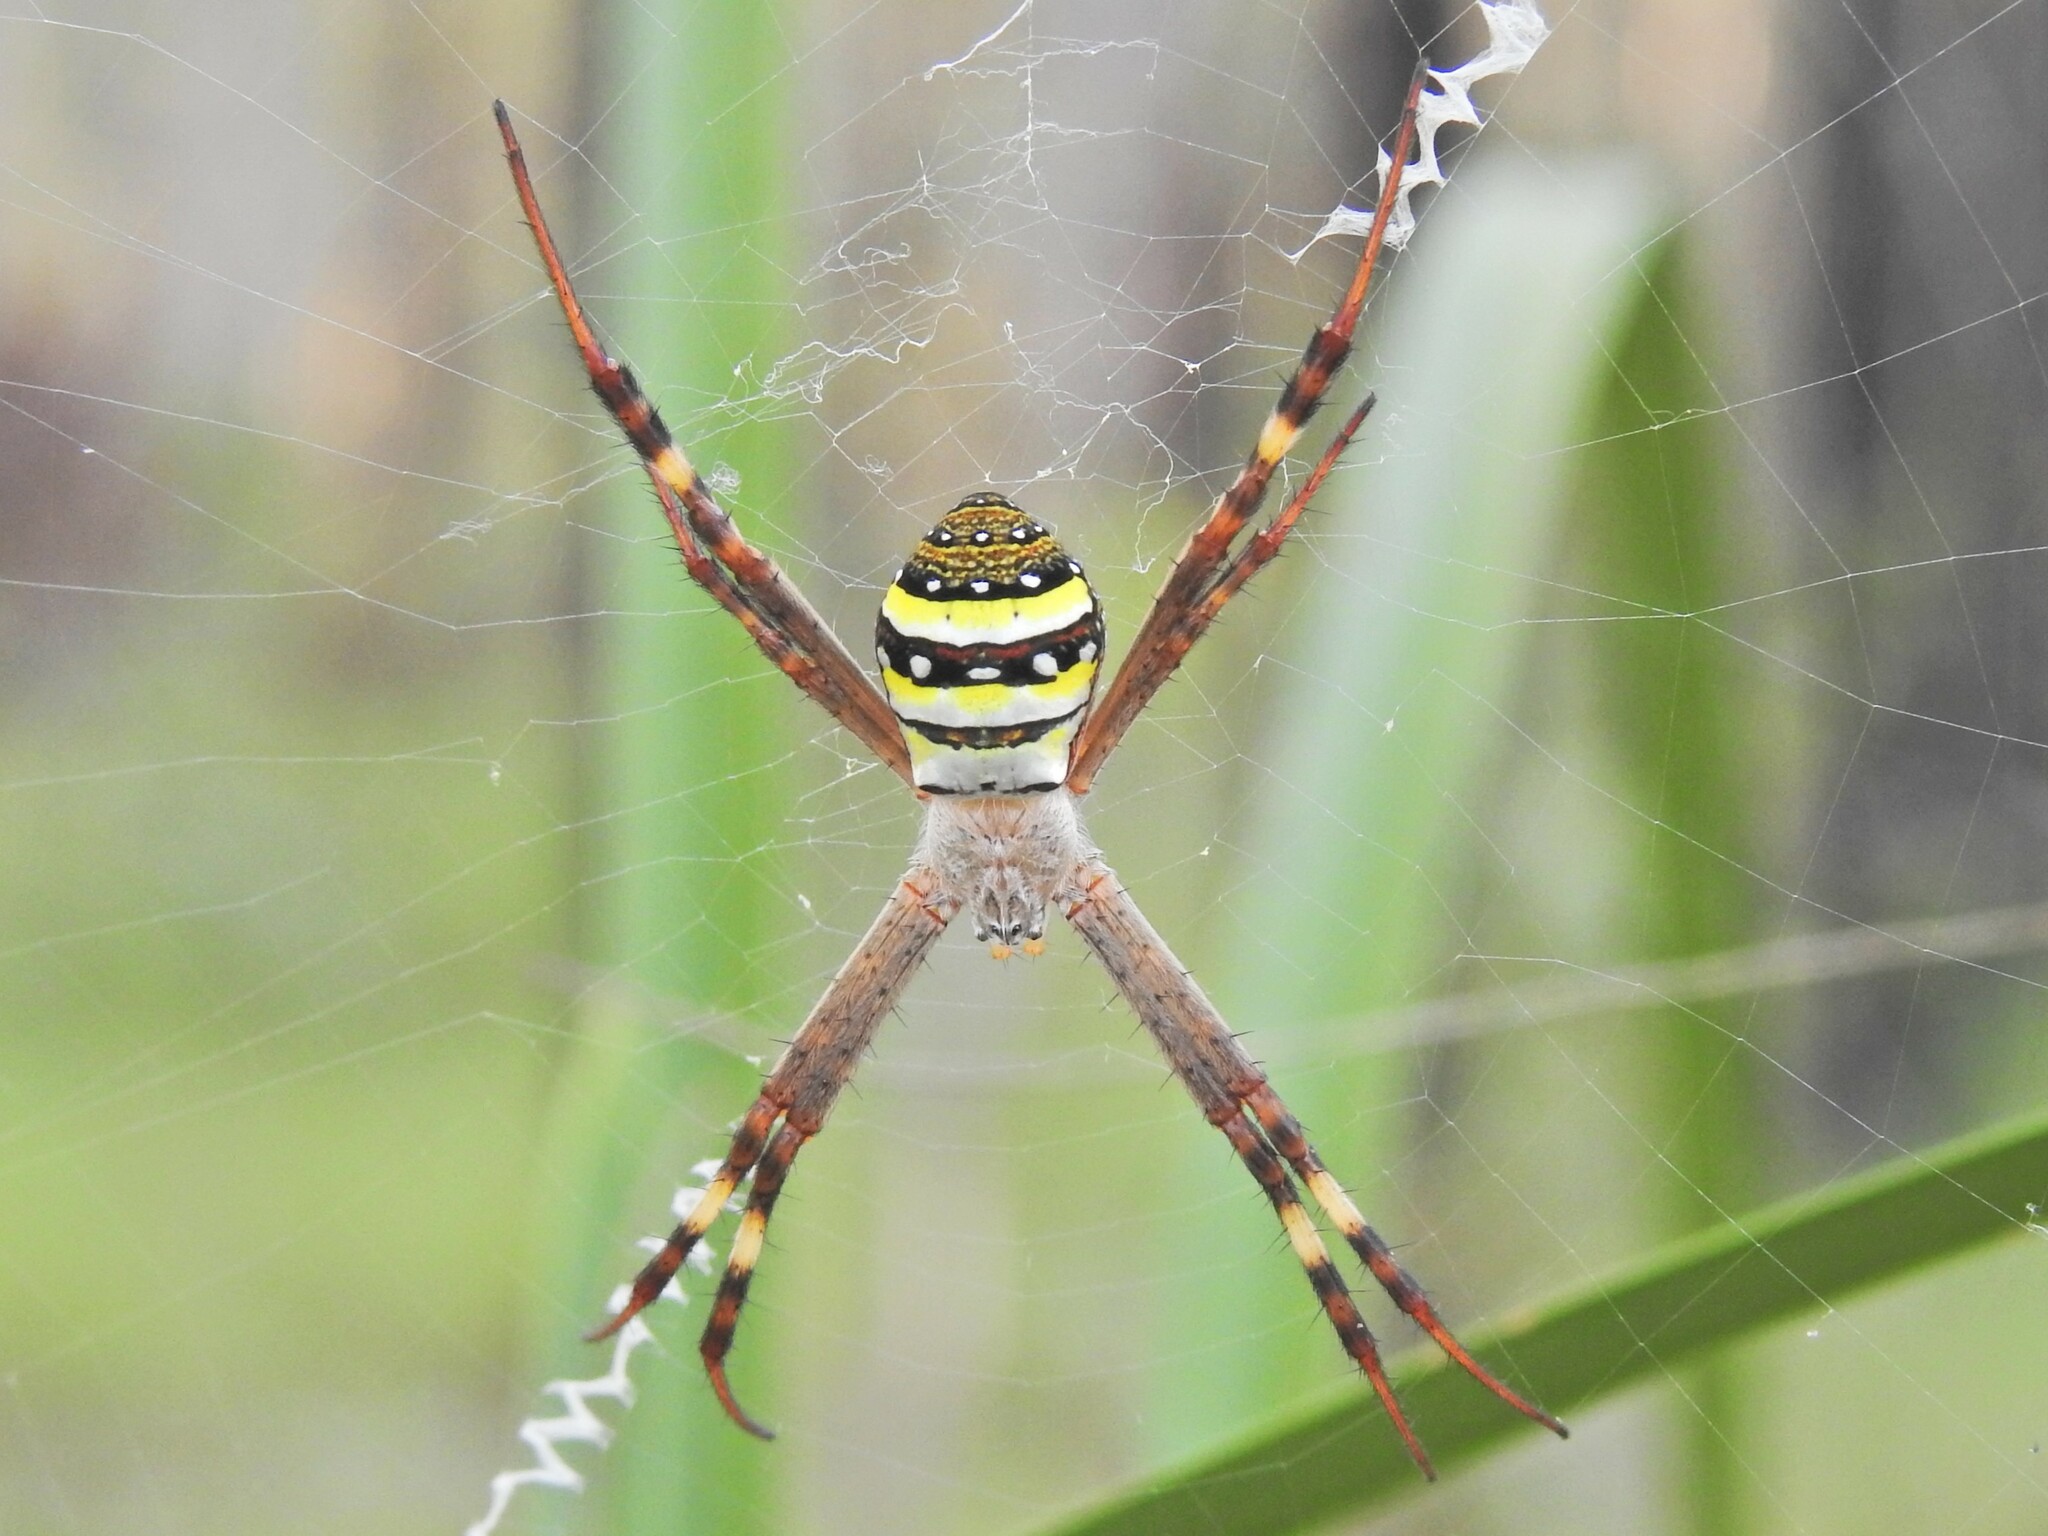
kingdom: Animalia
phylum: Arthropoda
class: Arachnida
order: Araneae
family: Araneidae
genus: Argiope
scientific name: Argiope keyserlingi
